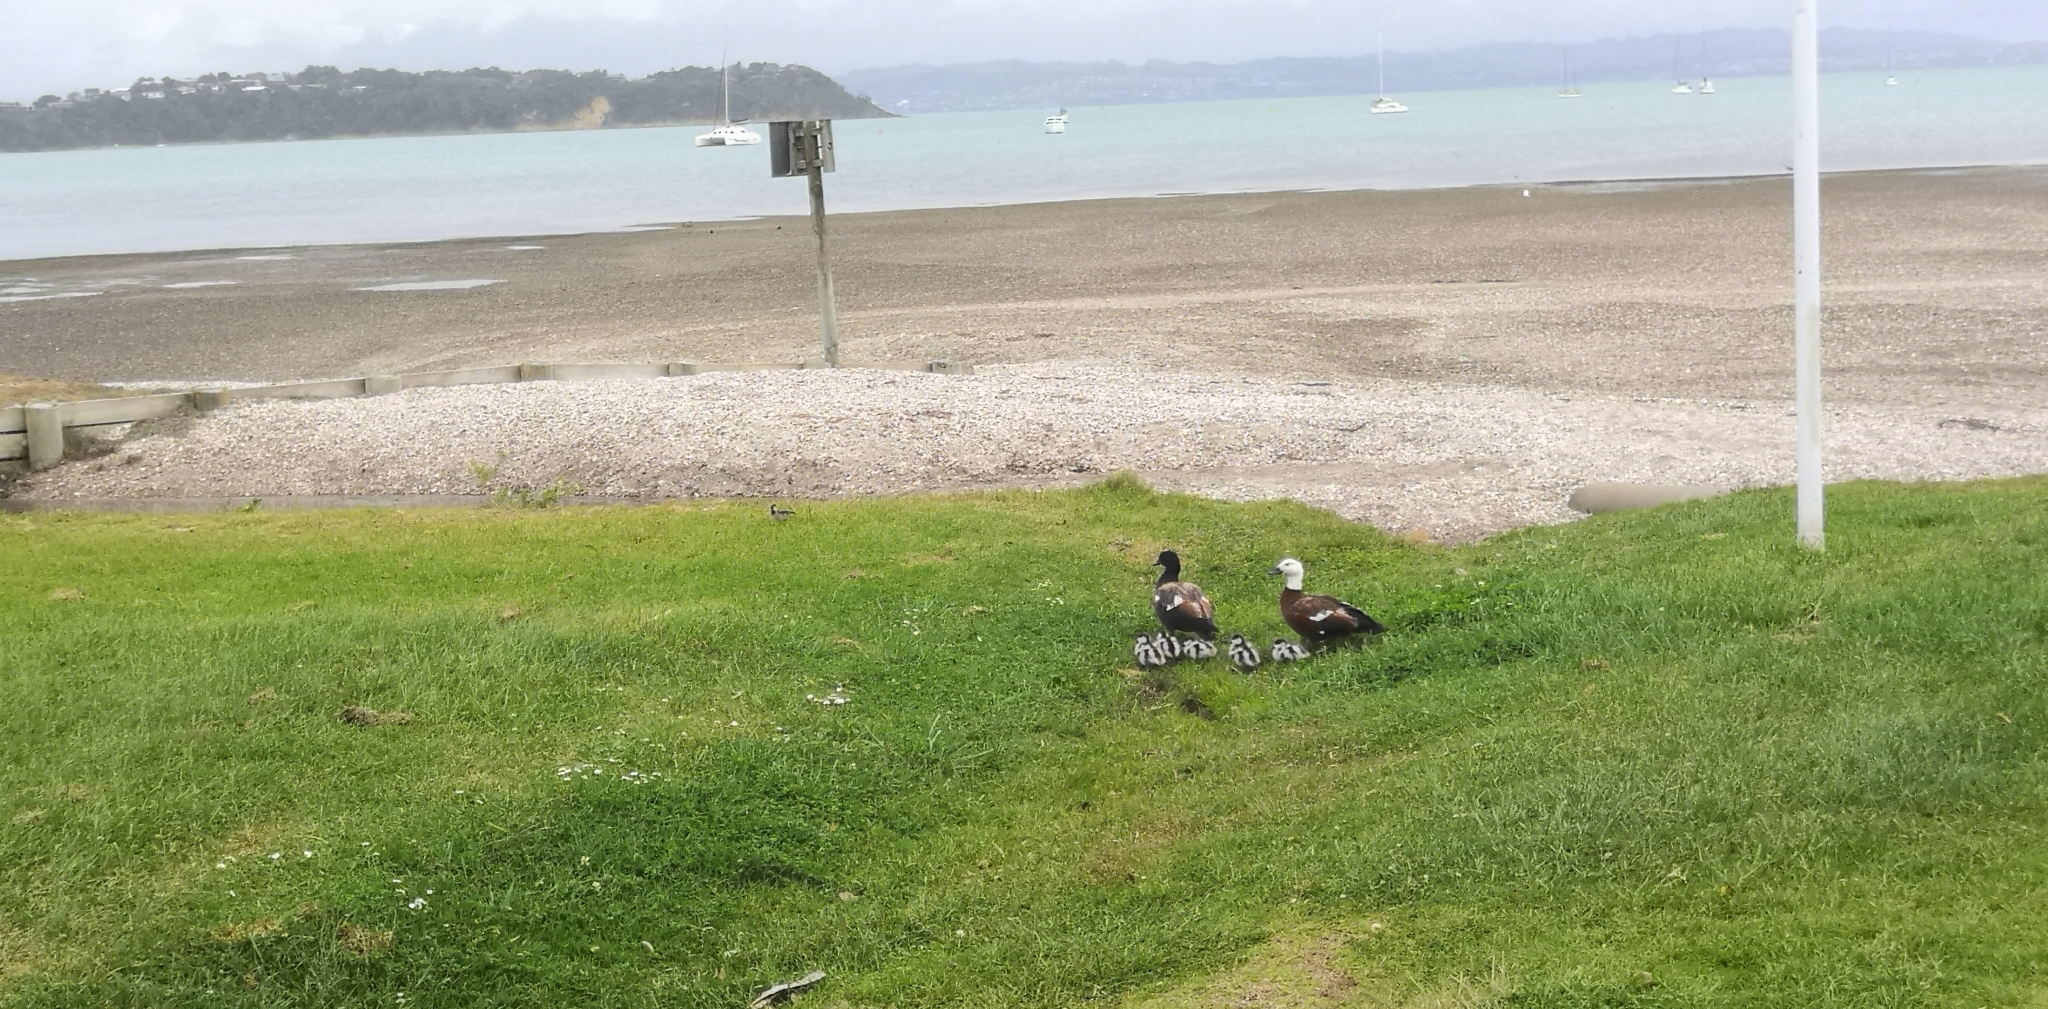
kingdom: Animalia
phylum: Chordata
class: Aves
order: Anseriformes
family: Anatidae
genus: Tadorna
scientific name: Tadorna variegata
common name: Paradise shelduck
